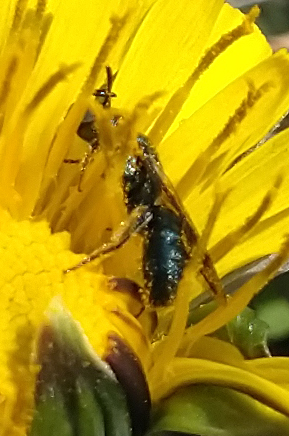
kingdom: Animalia
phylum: Arthropoda
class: Insecta
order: Hymenoptera
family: Apidae
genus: Zadontomerus
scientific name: Zadontomerus
